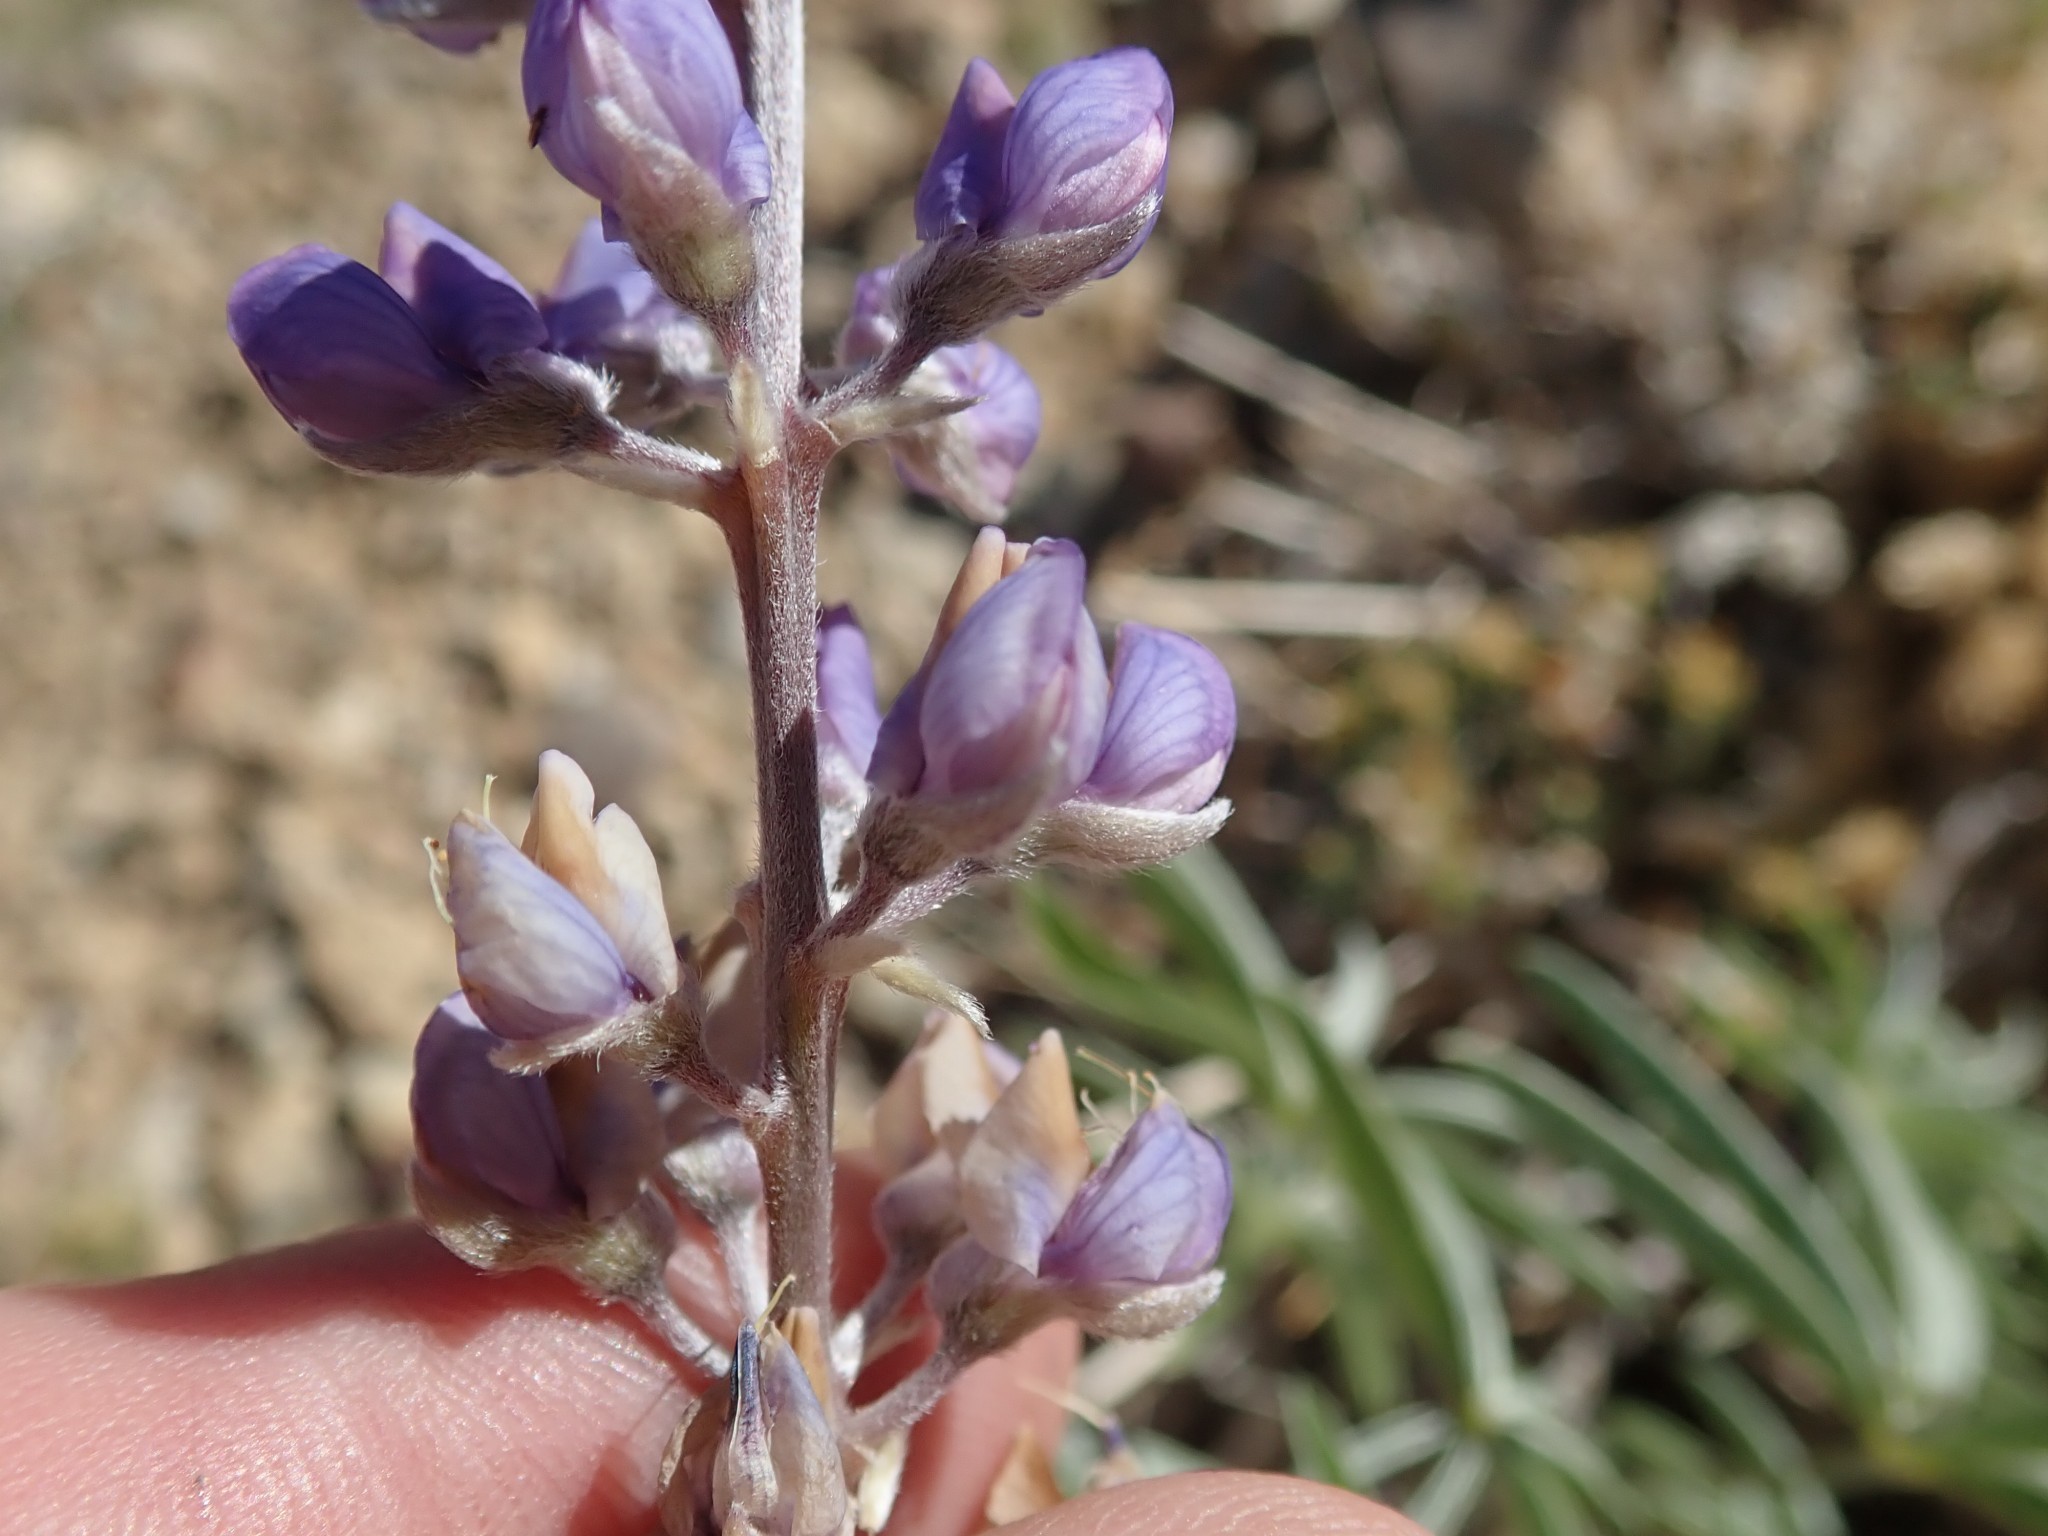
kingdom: Plantae
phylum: Tracheophyta
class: Magnoliopsida
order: Fabales
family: Fabaceae
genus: Lupinus
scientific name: Lupinus argenteus
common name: Silvery lupine
